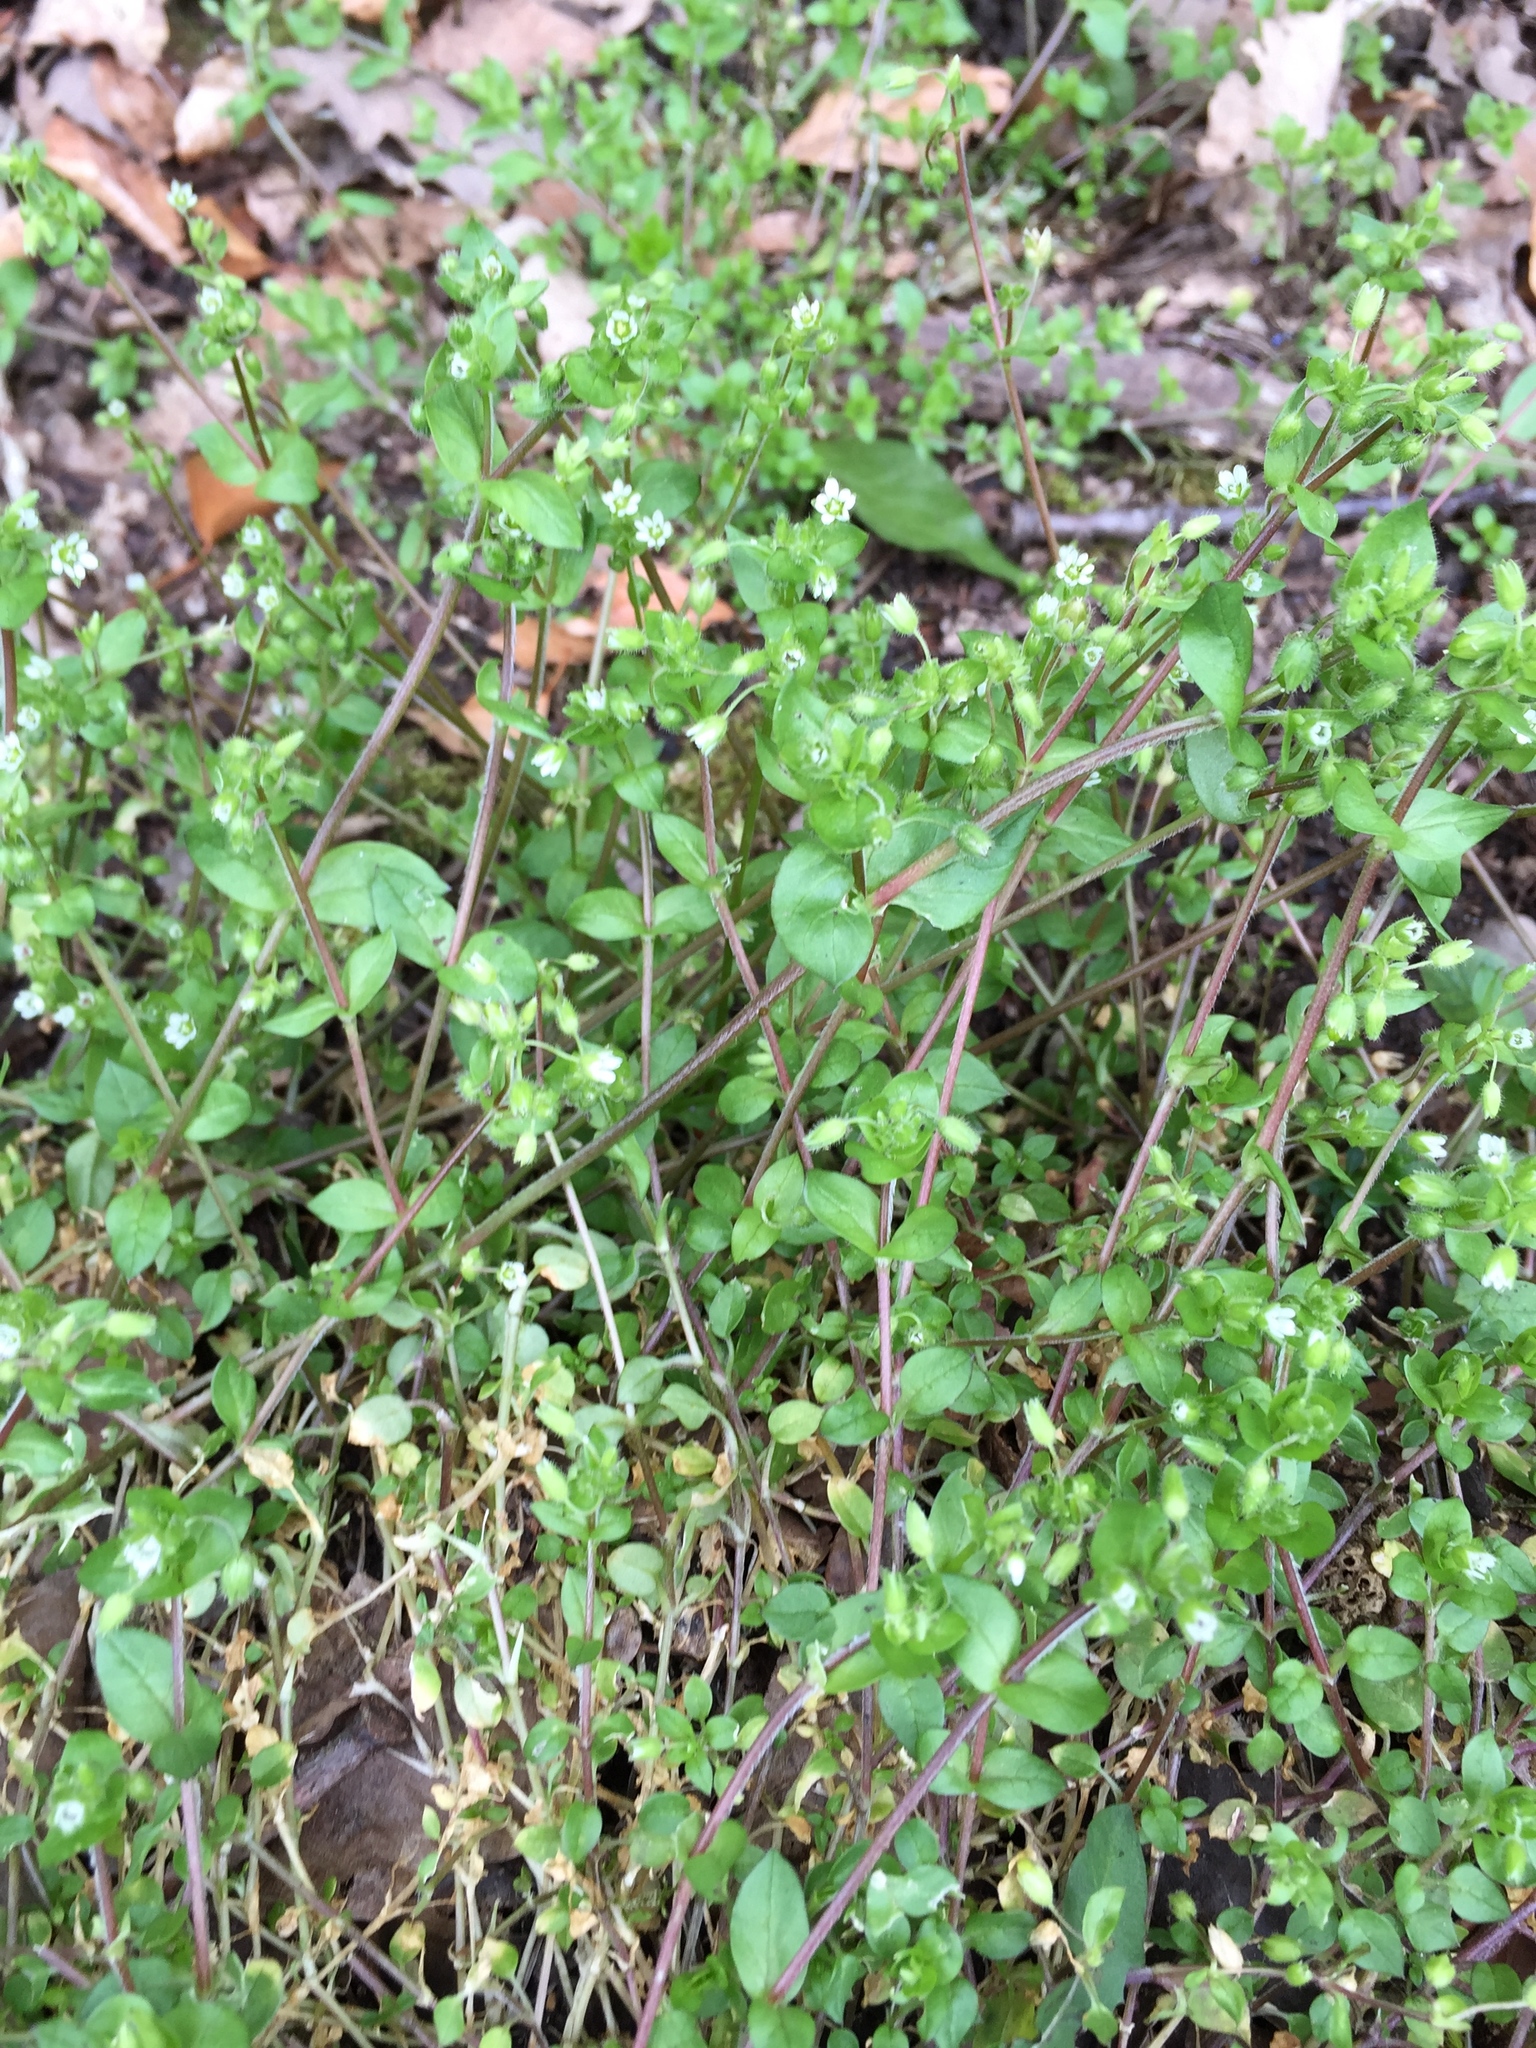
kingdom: Plantae
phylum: Tracheophyta
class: Magnoliopsida
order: Caryophyllales
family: Caryophyllaceae
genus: Stellaria
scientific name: Stellaria media
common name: Common chickweed
